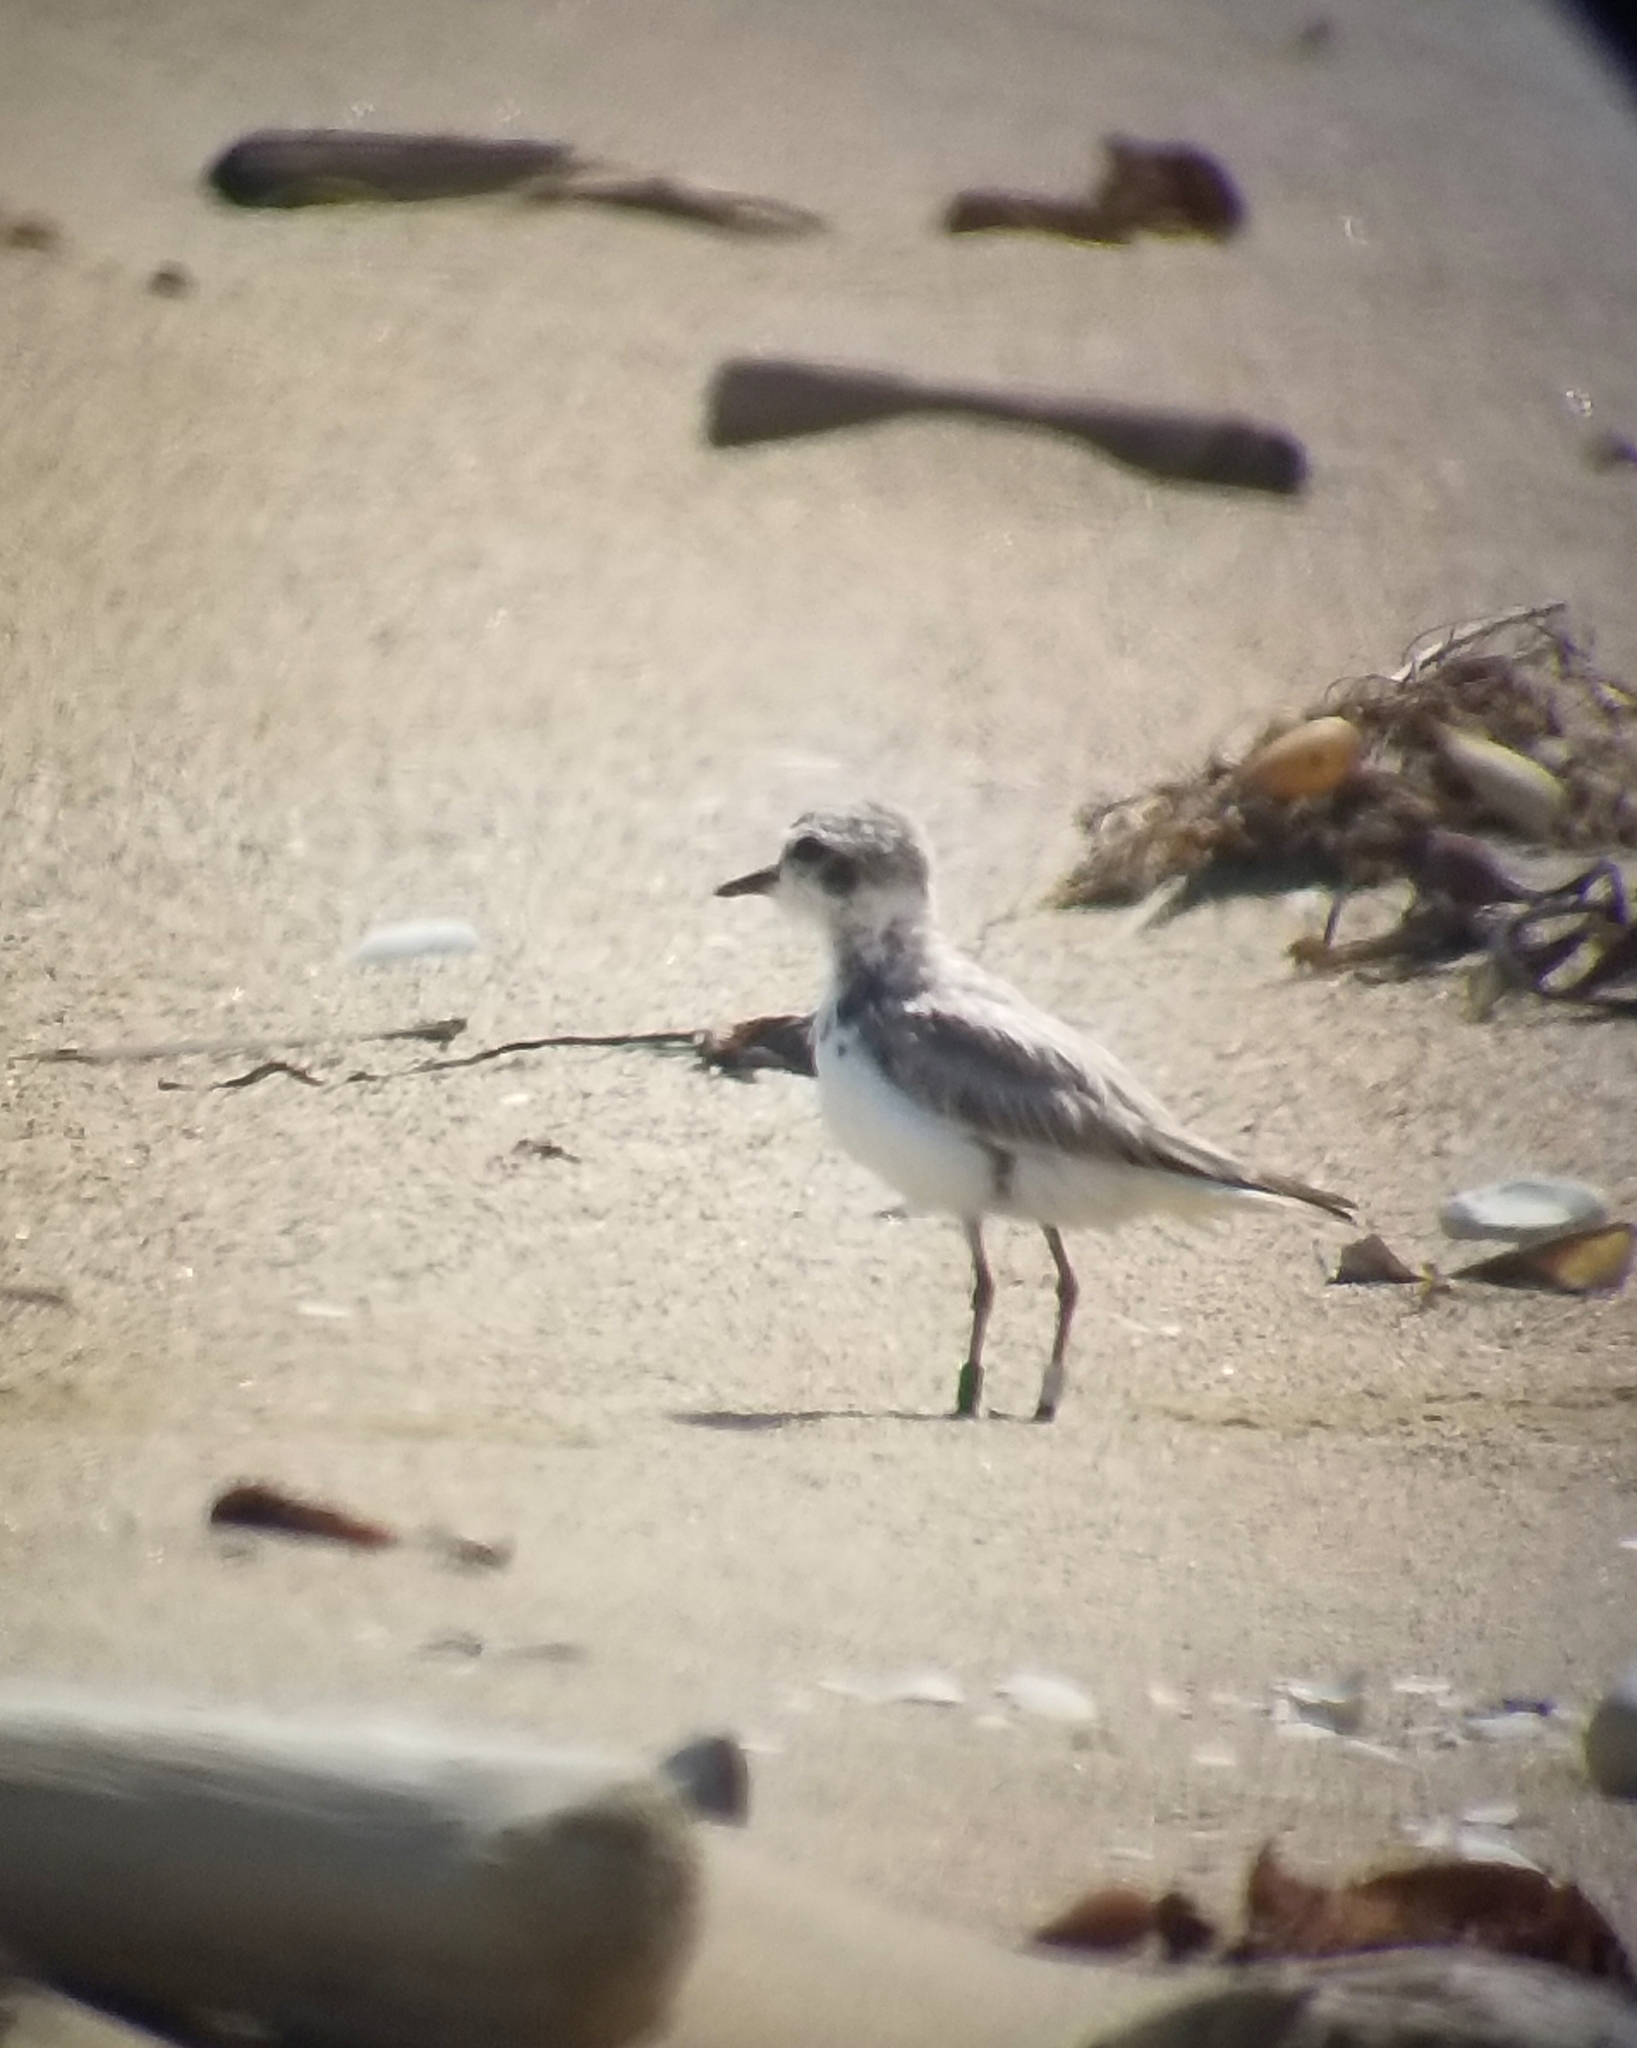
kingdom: Animalia
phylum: Chordata
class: Aves
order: Charadriiformes
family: Charadriidae
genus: Anarhynchus
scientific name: Anarhynchus
